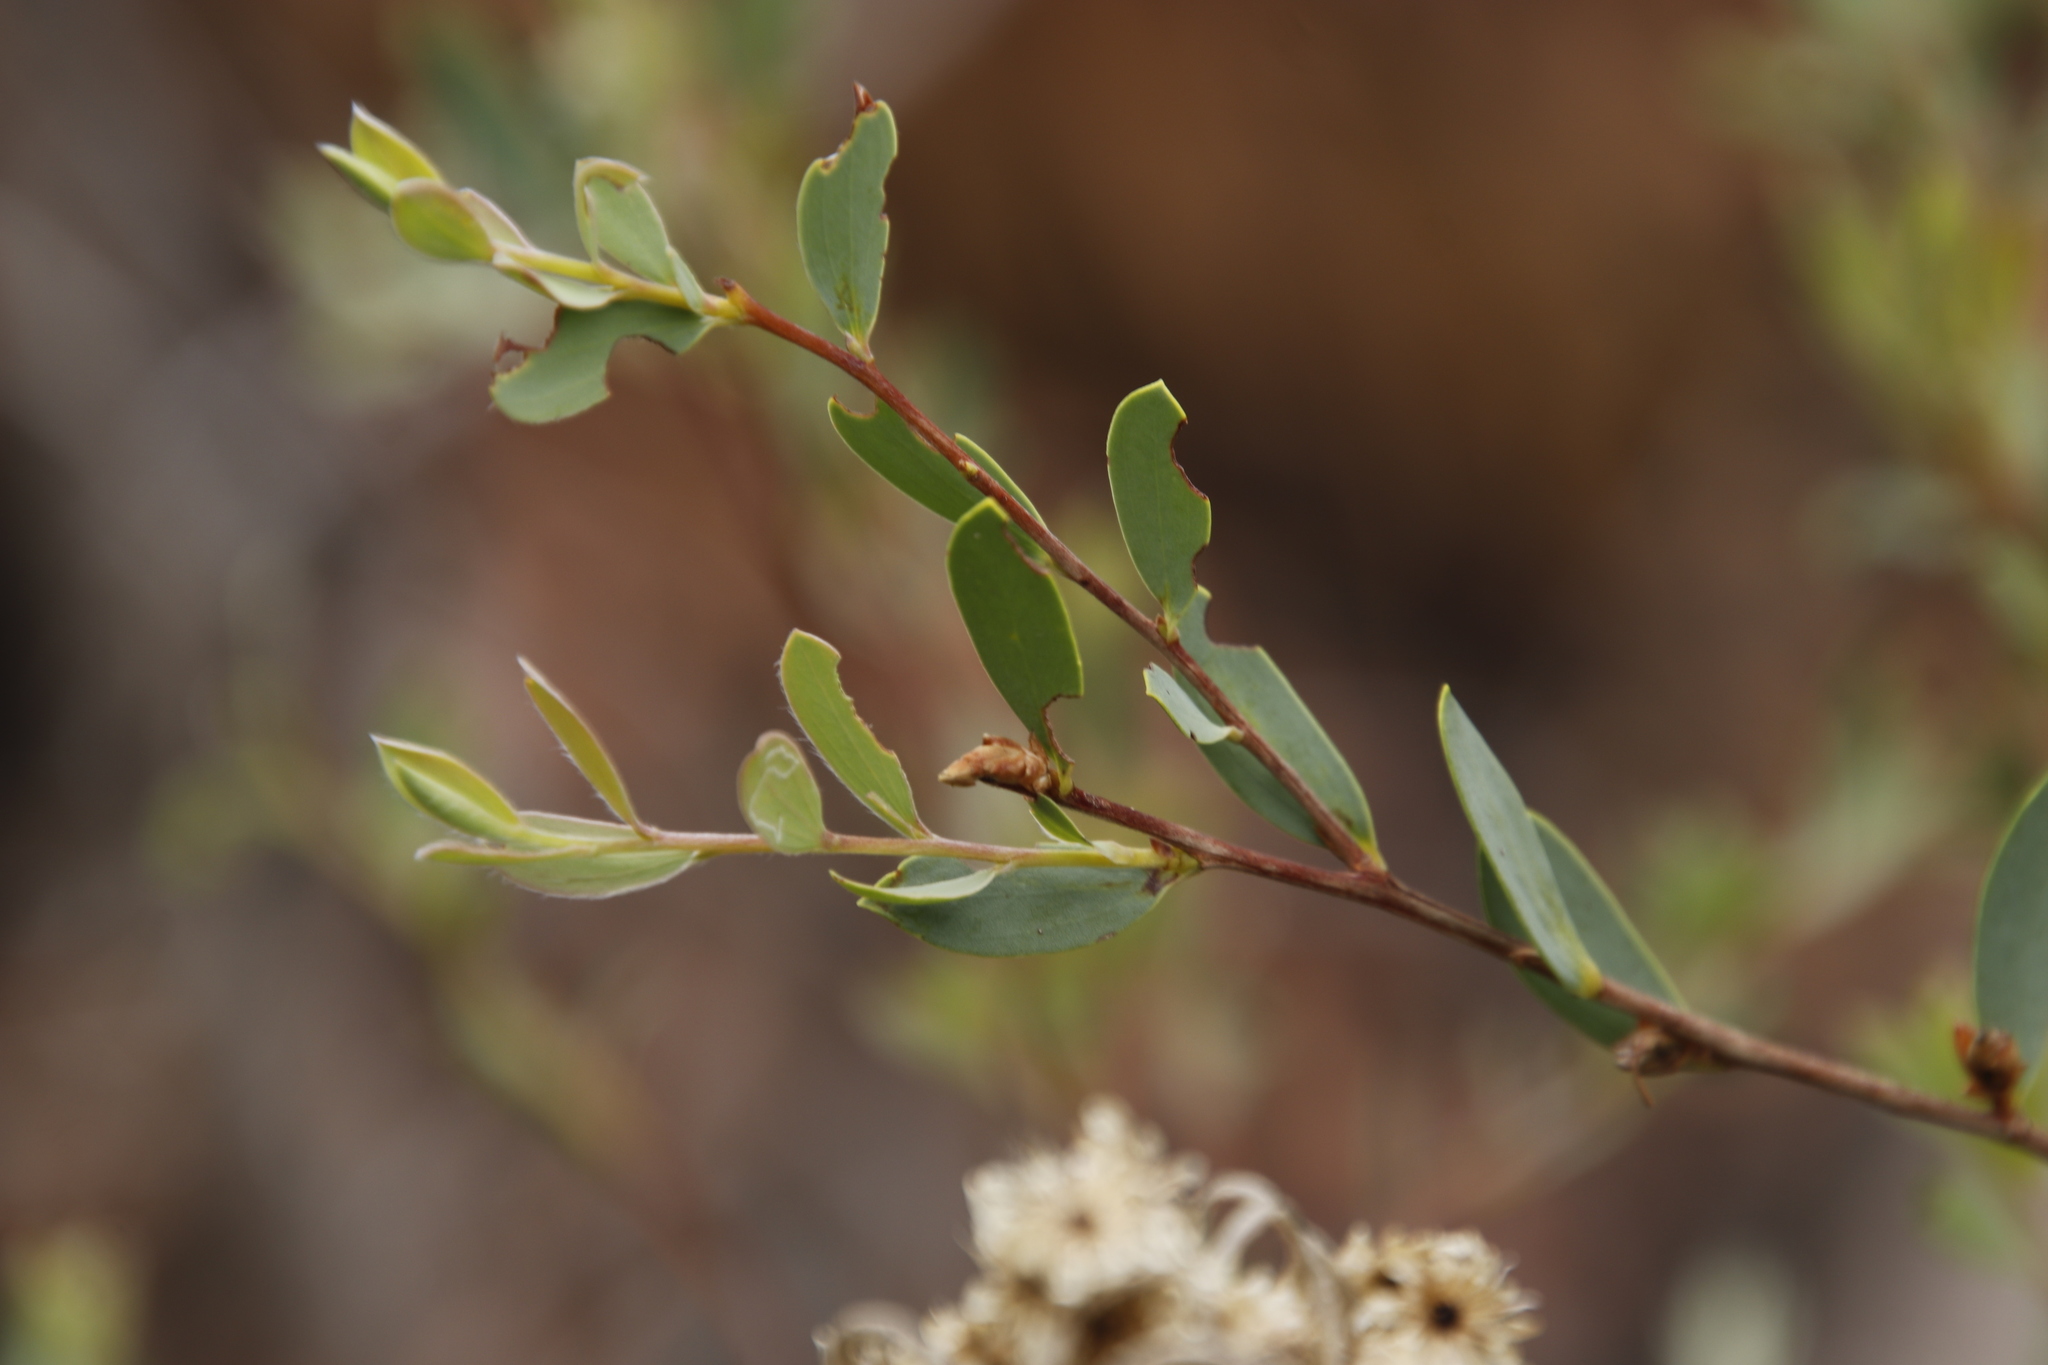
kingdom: Animalia
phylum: Arthropoda
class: Insecta
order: Lepidoptera
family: Gracillariidae
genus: Aristaea
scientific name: Aristaea thalassias
